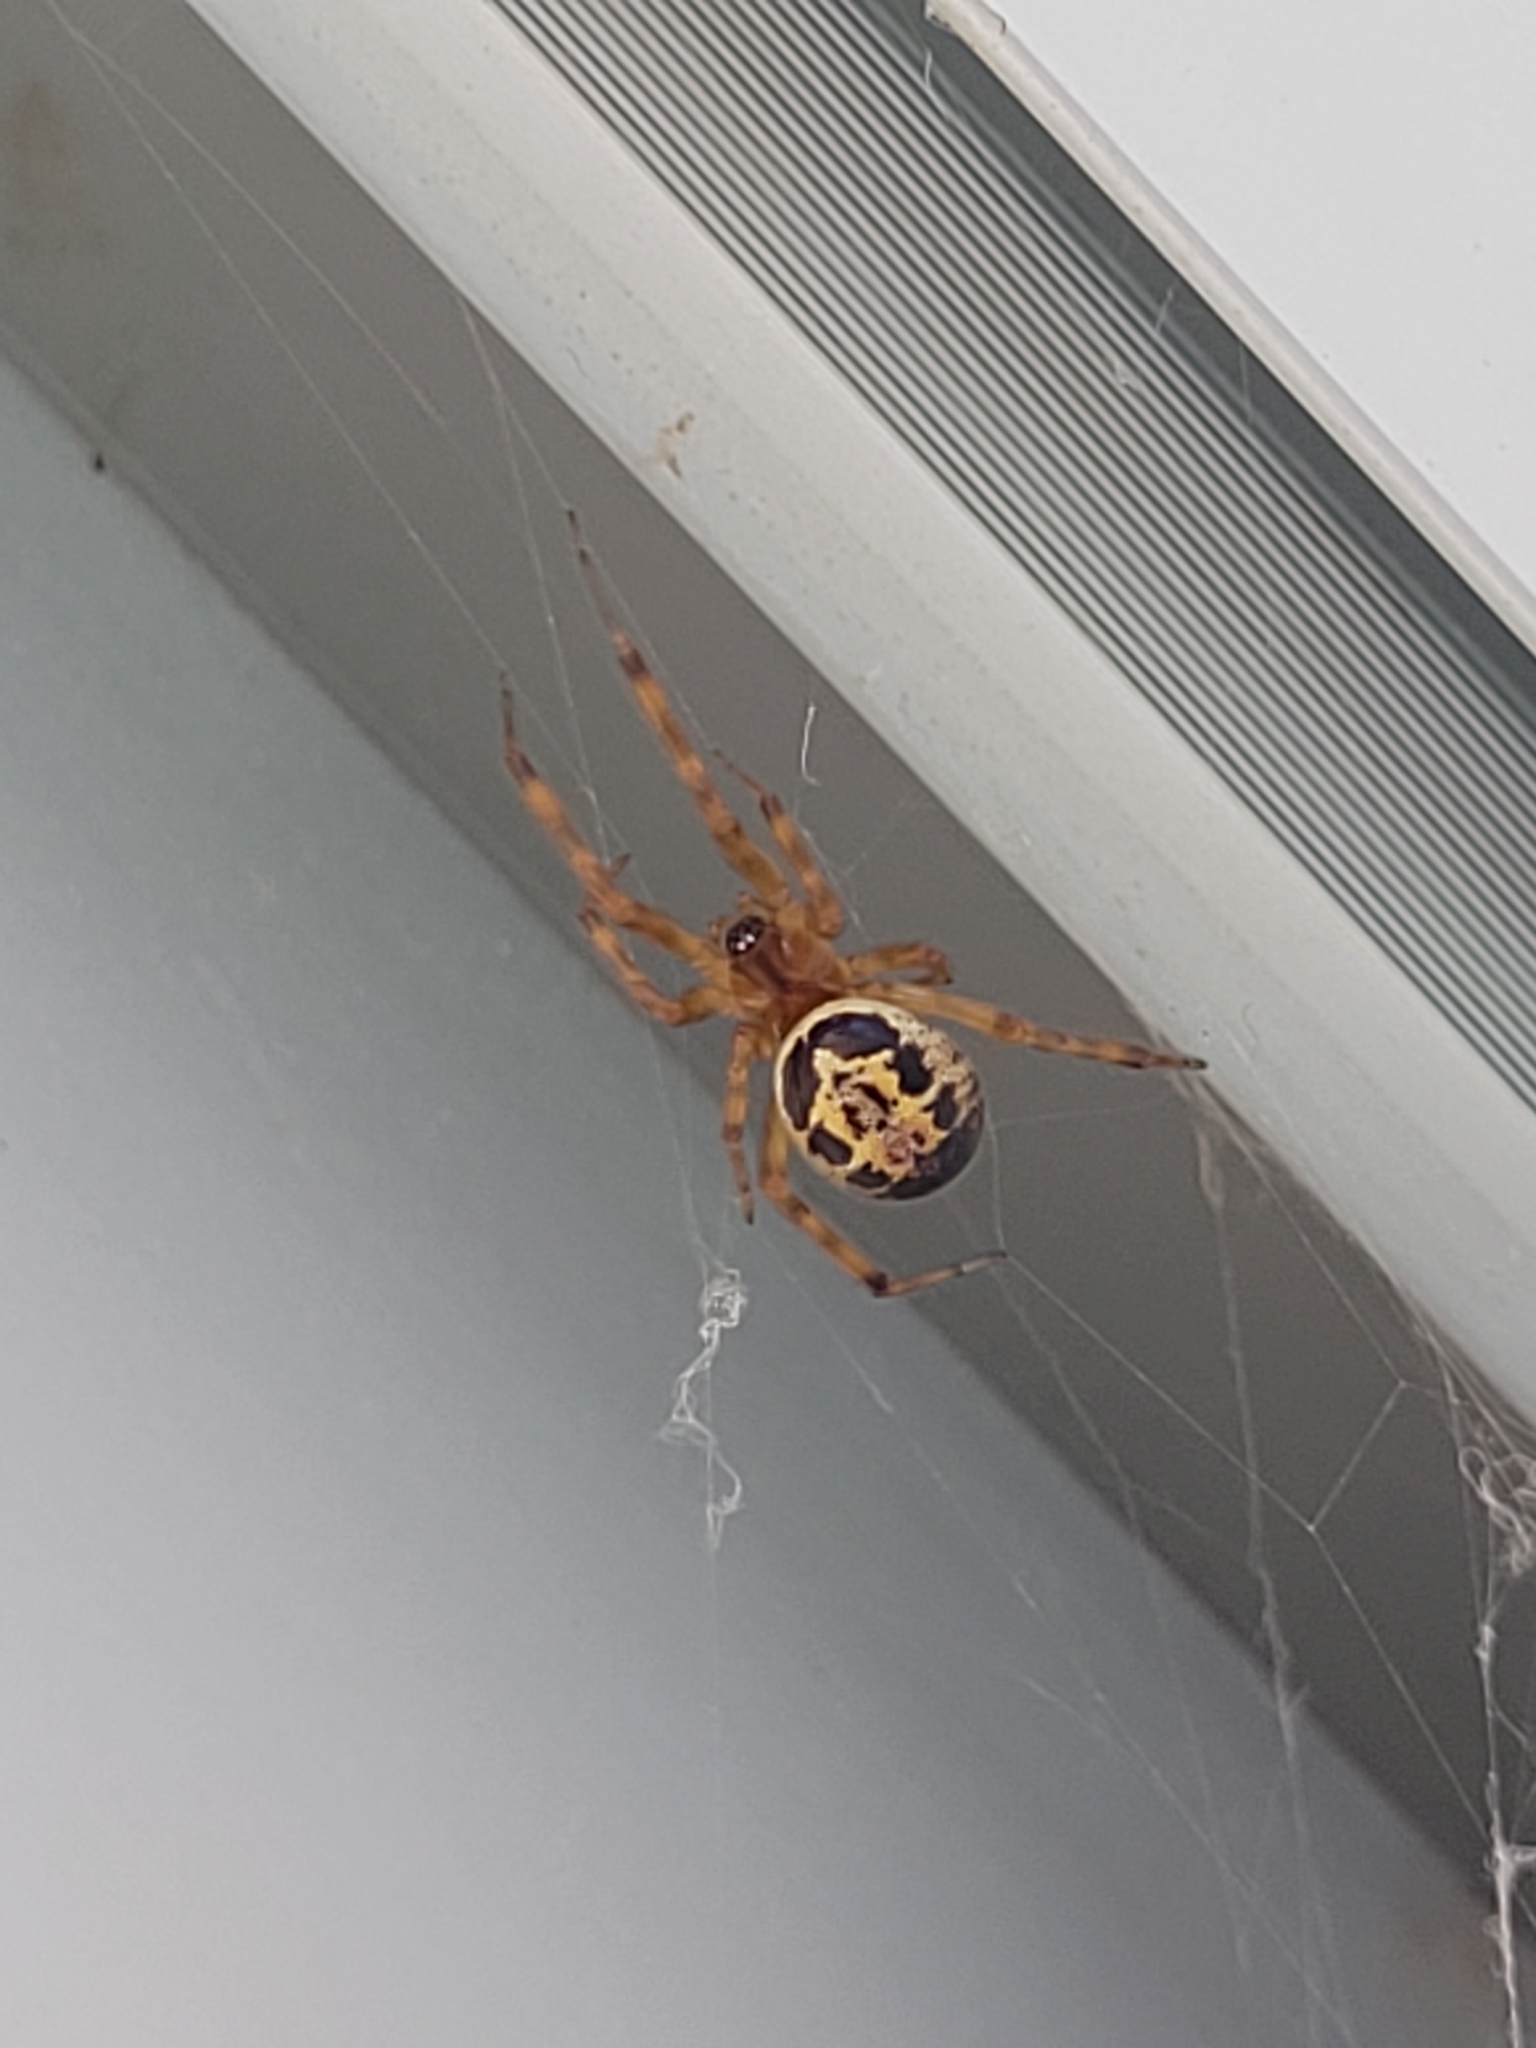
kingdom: Animalia
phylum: Arthropoda
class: Arachnida
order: Araneae
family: Theridiidae
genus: Steatoda
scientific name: Steatoda nobilis
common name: Cobweb weaver
